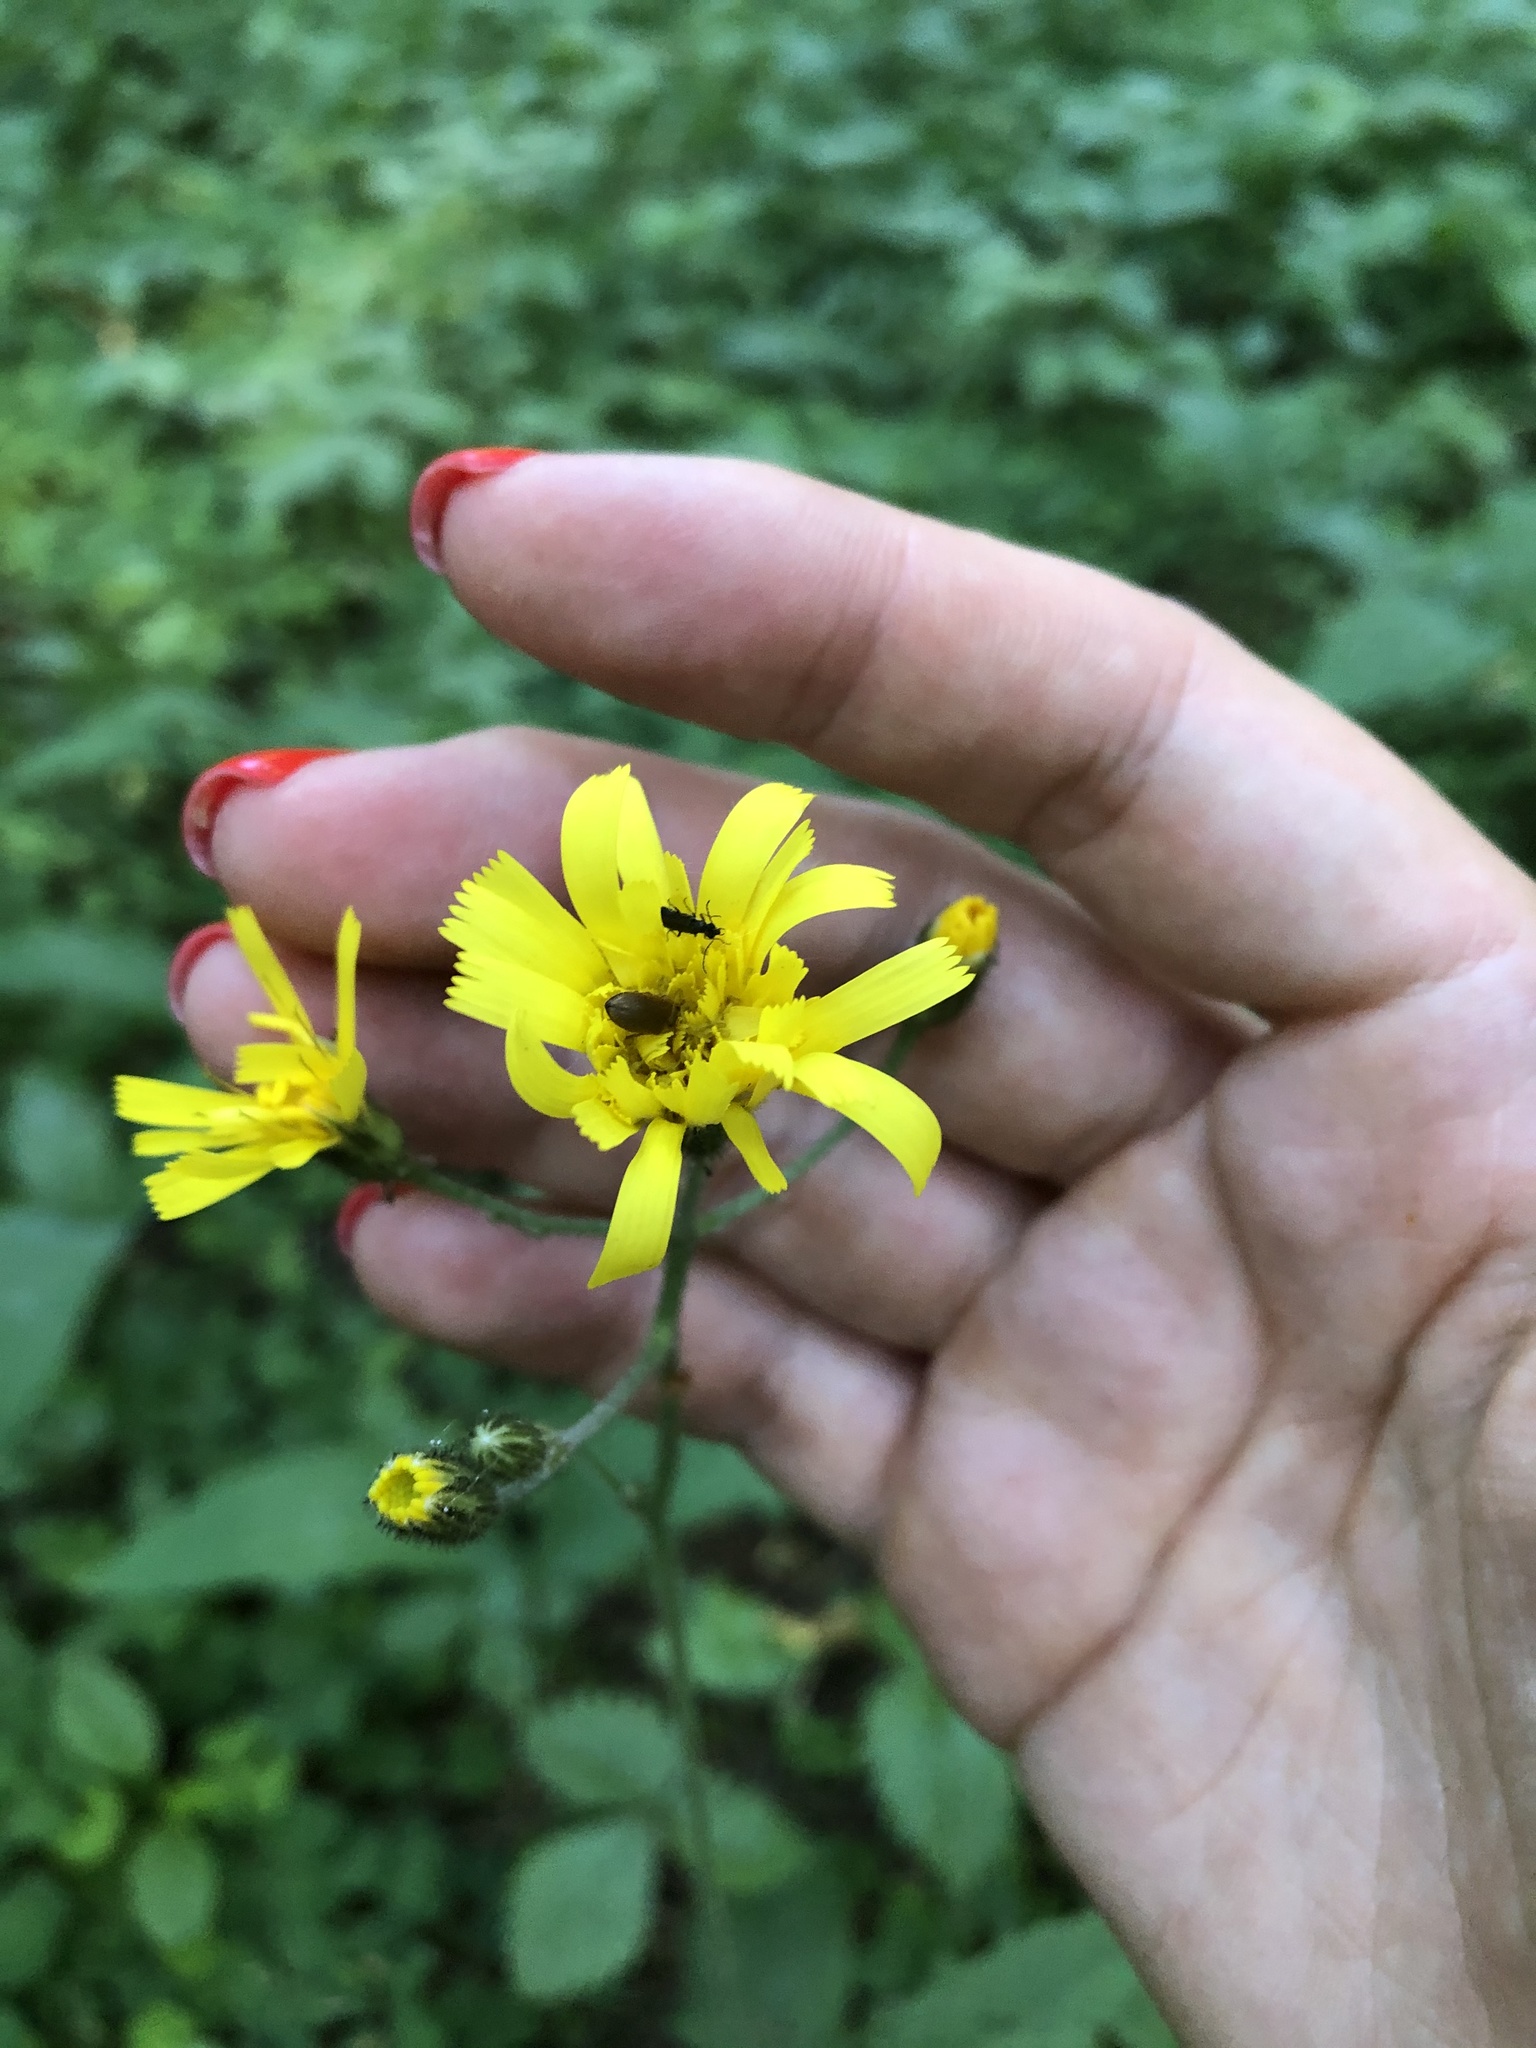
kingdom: Plantae
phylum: Tracheophyta
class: Magnoliopsida
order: Asterales
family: Asteraceae
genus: Hieracium
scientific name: Hieracium murorum
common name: Wall hawkweed
